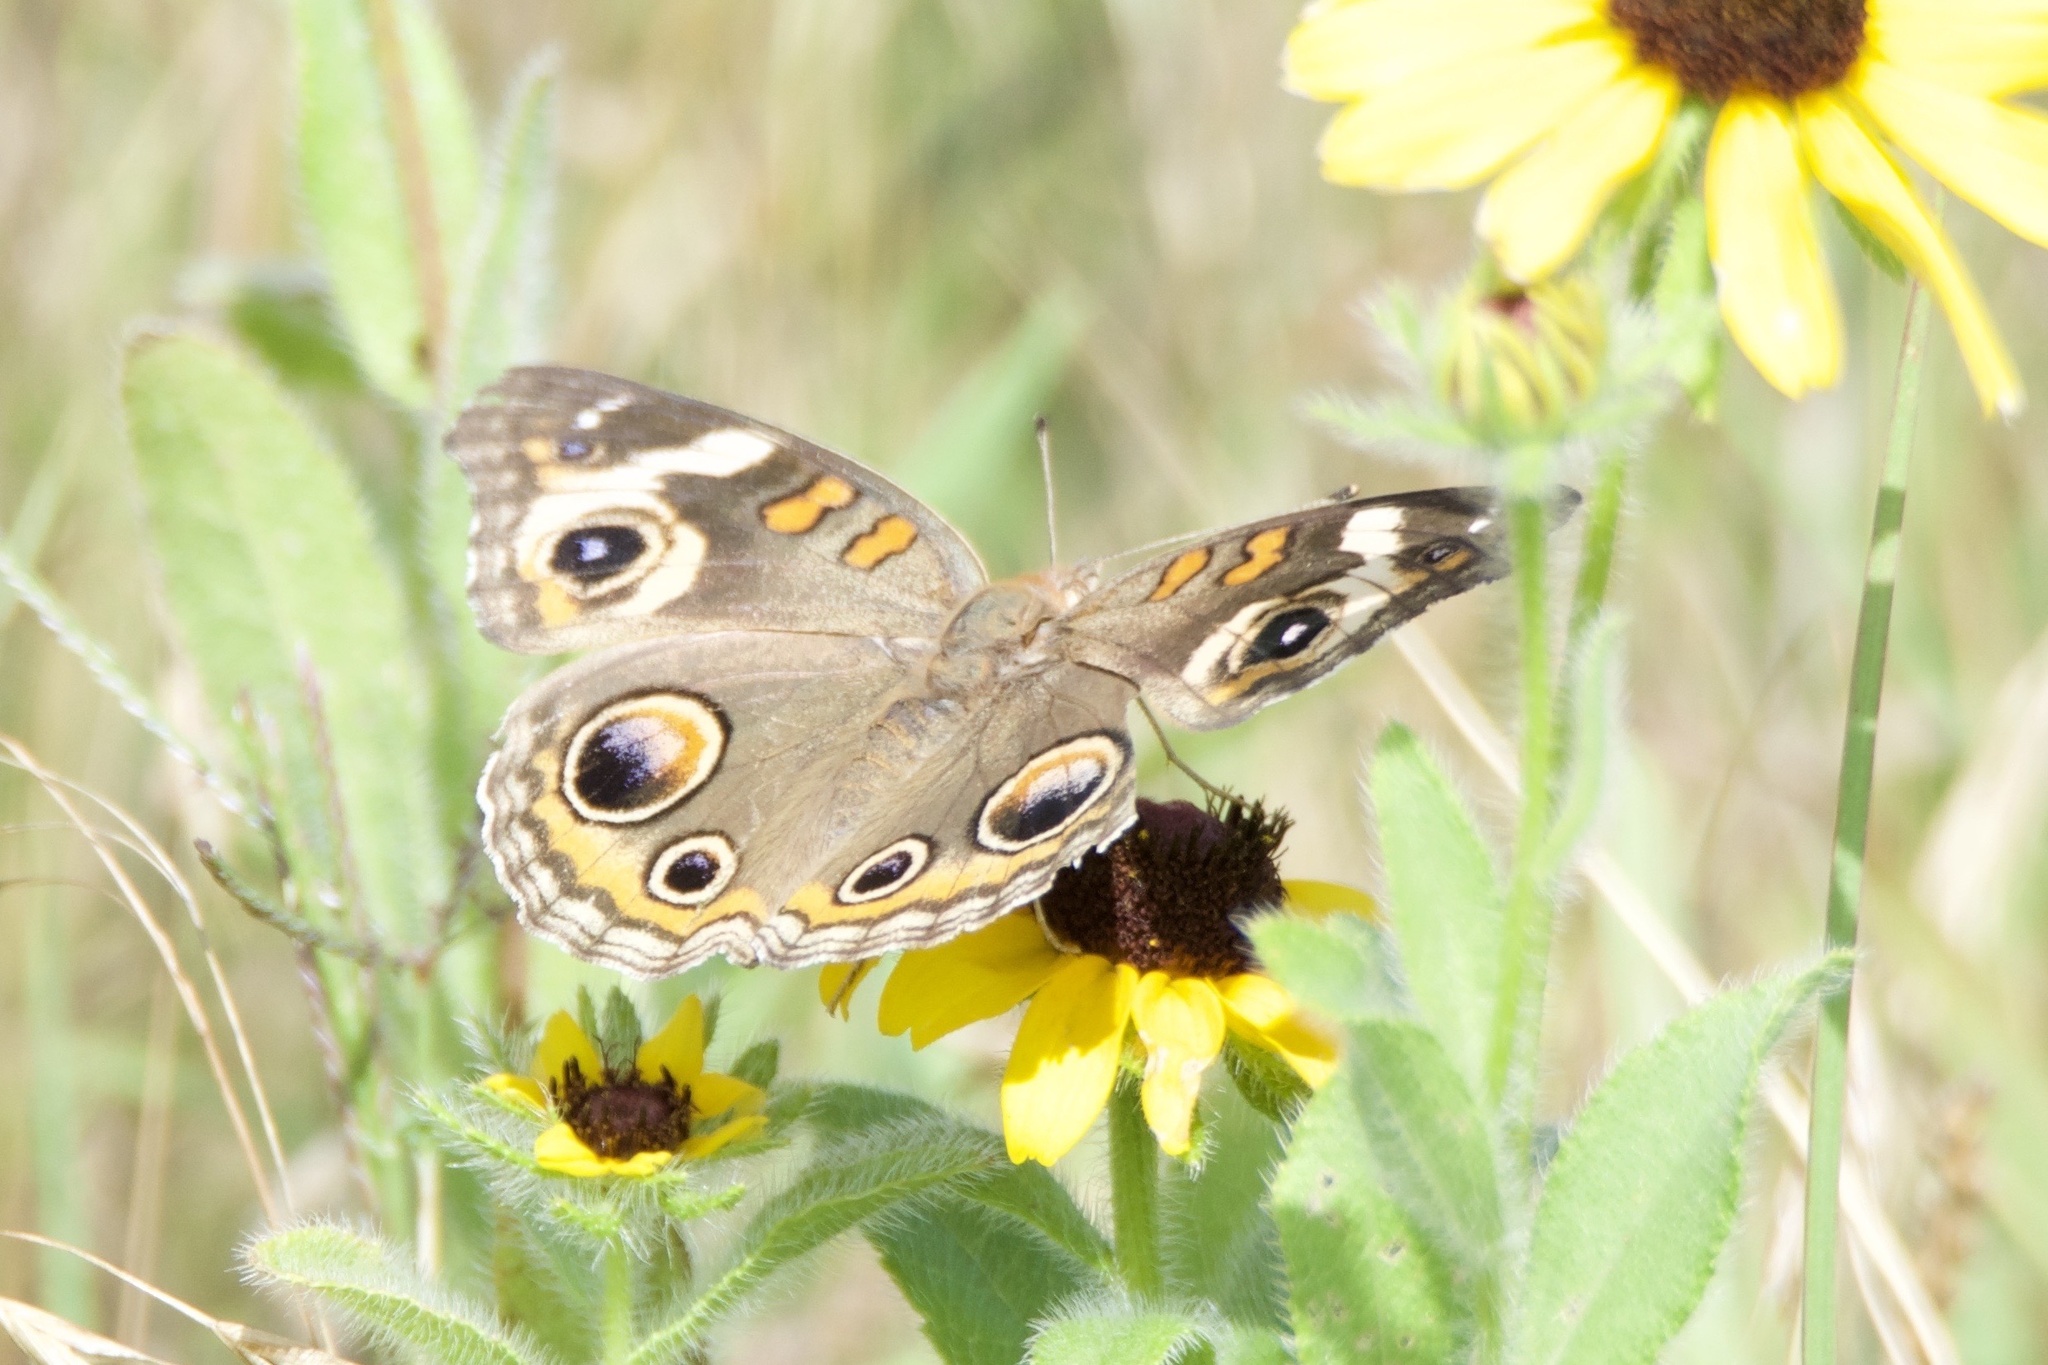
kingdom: Animalia
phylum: Arthropoda
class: Insecta
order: Lepidoptera
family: Nymphalidae
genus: Junonia
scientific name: Junonia coenia
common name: Common buckeye
